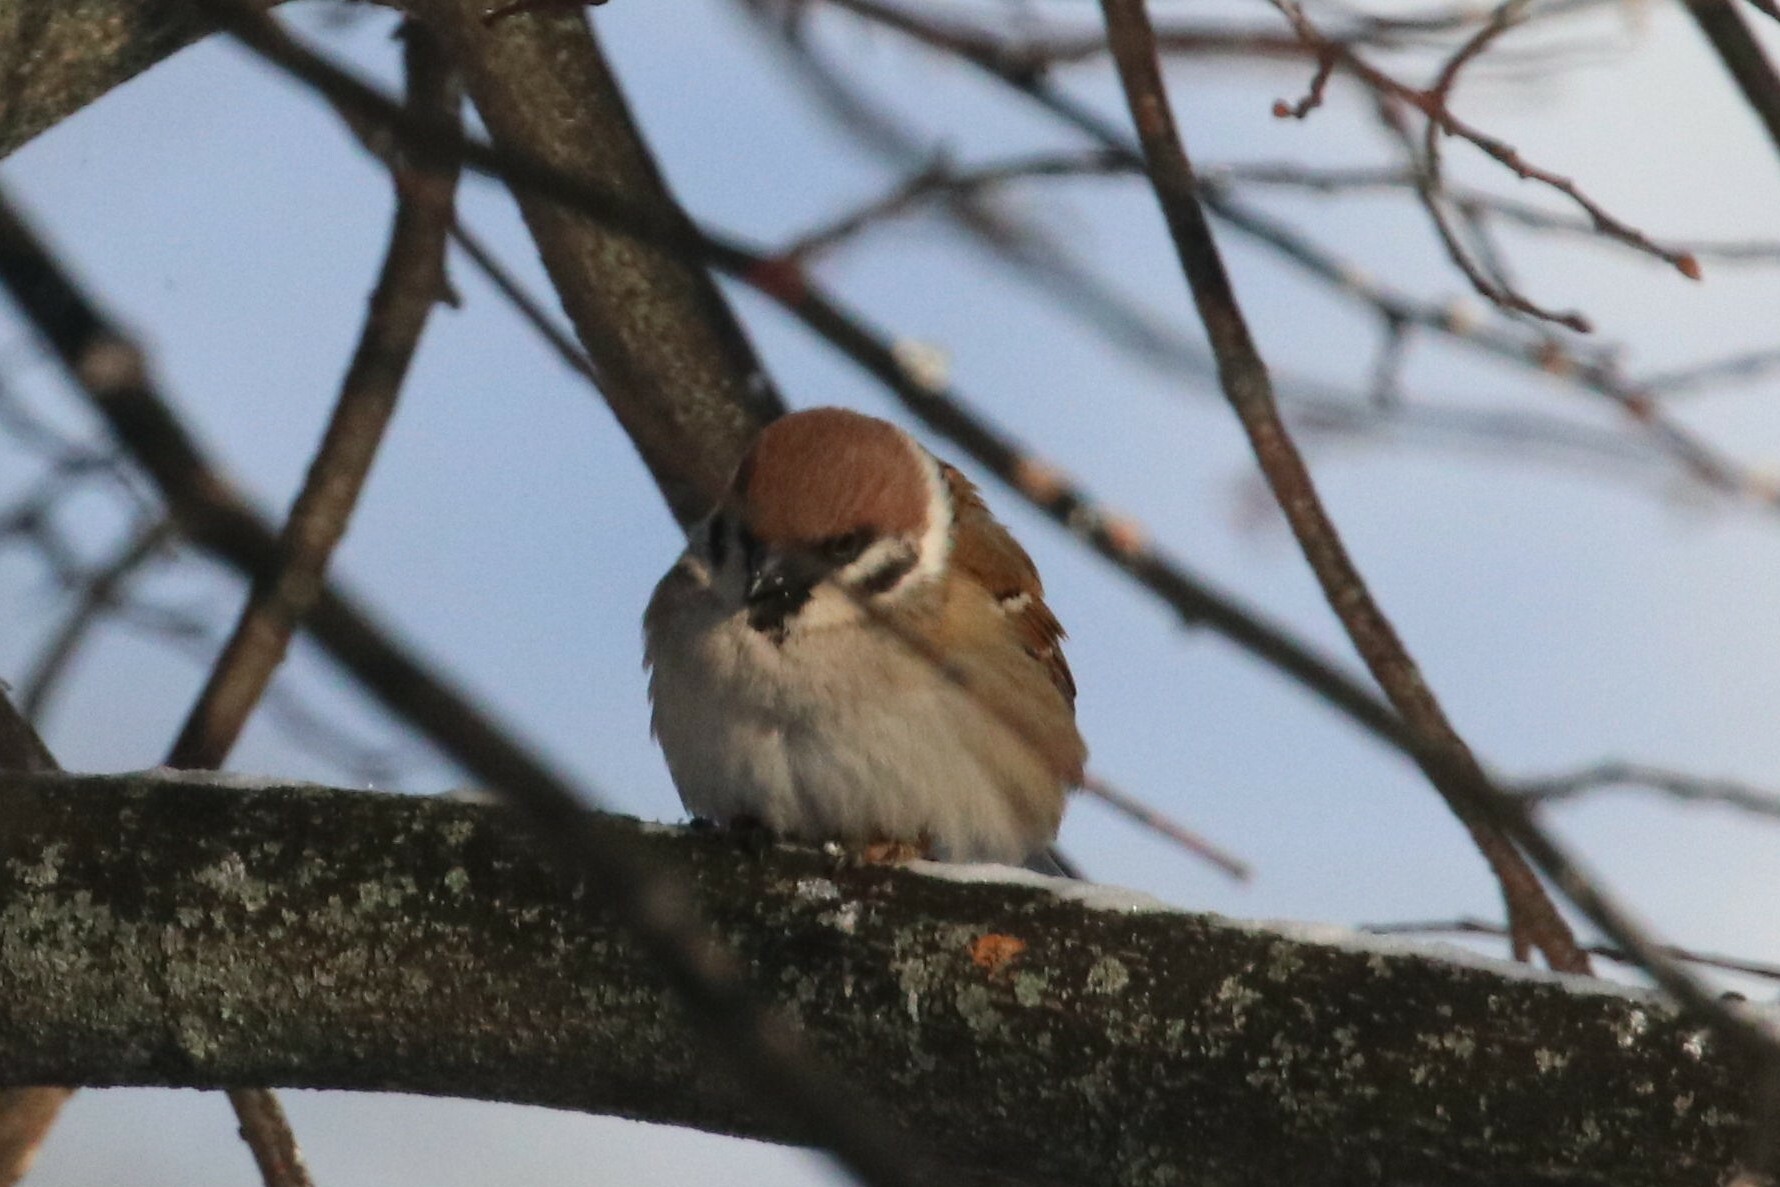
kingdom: Animalia
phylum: Chordata
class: Aves
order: Passeriformes
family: Passeridae
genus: Passer
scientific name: Passer montanus
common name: Eurasian tree sparrow
